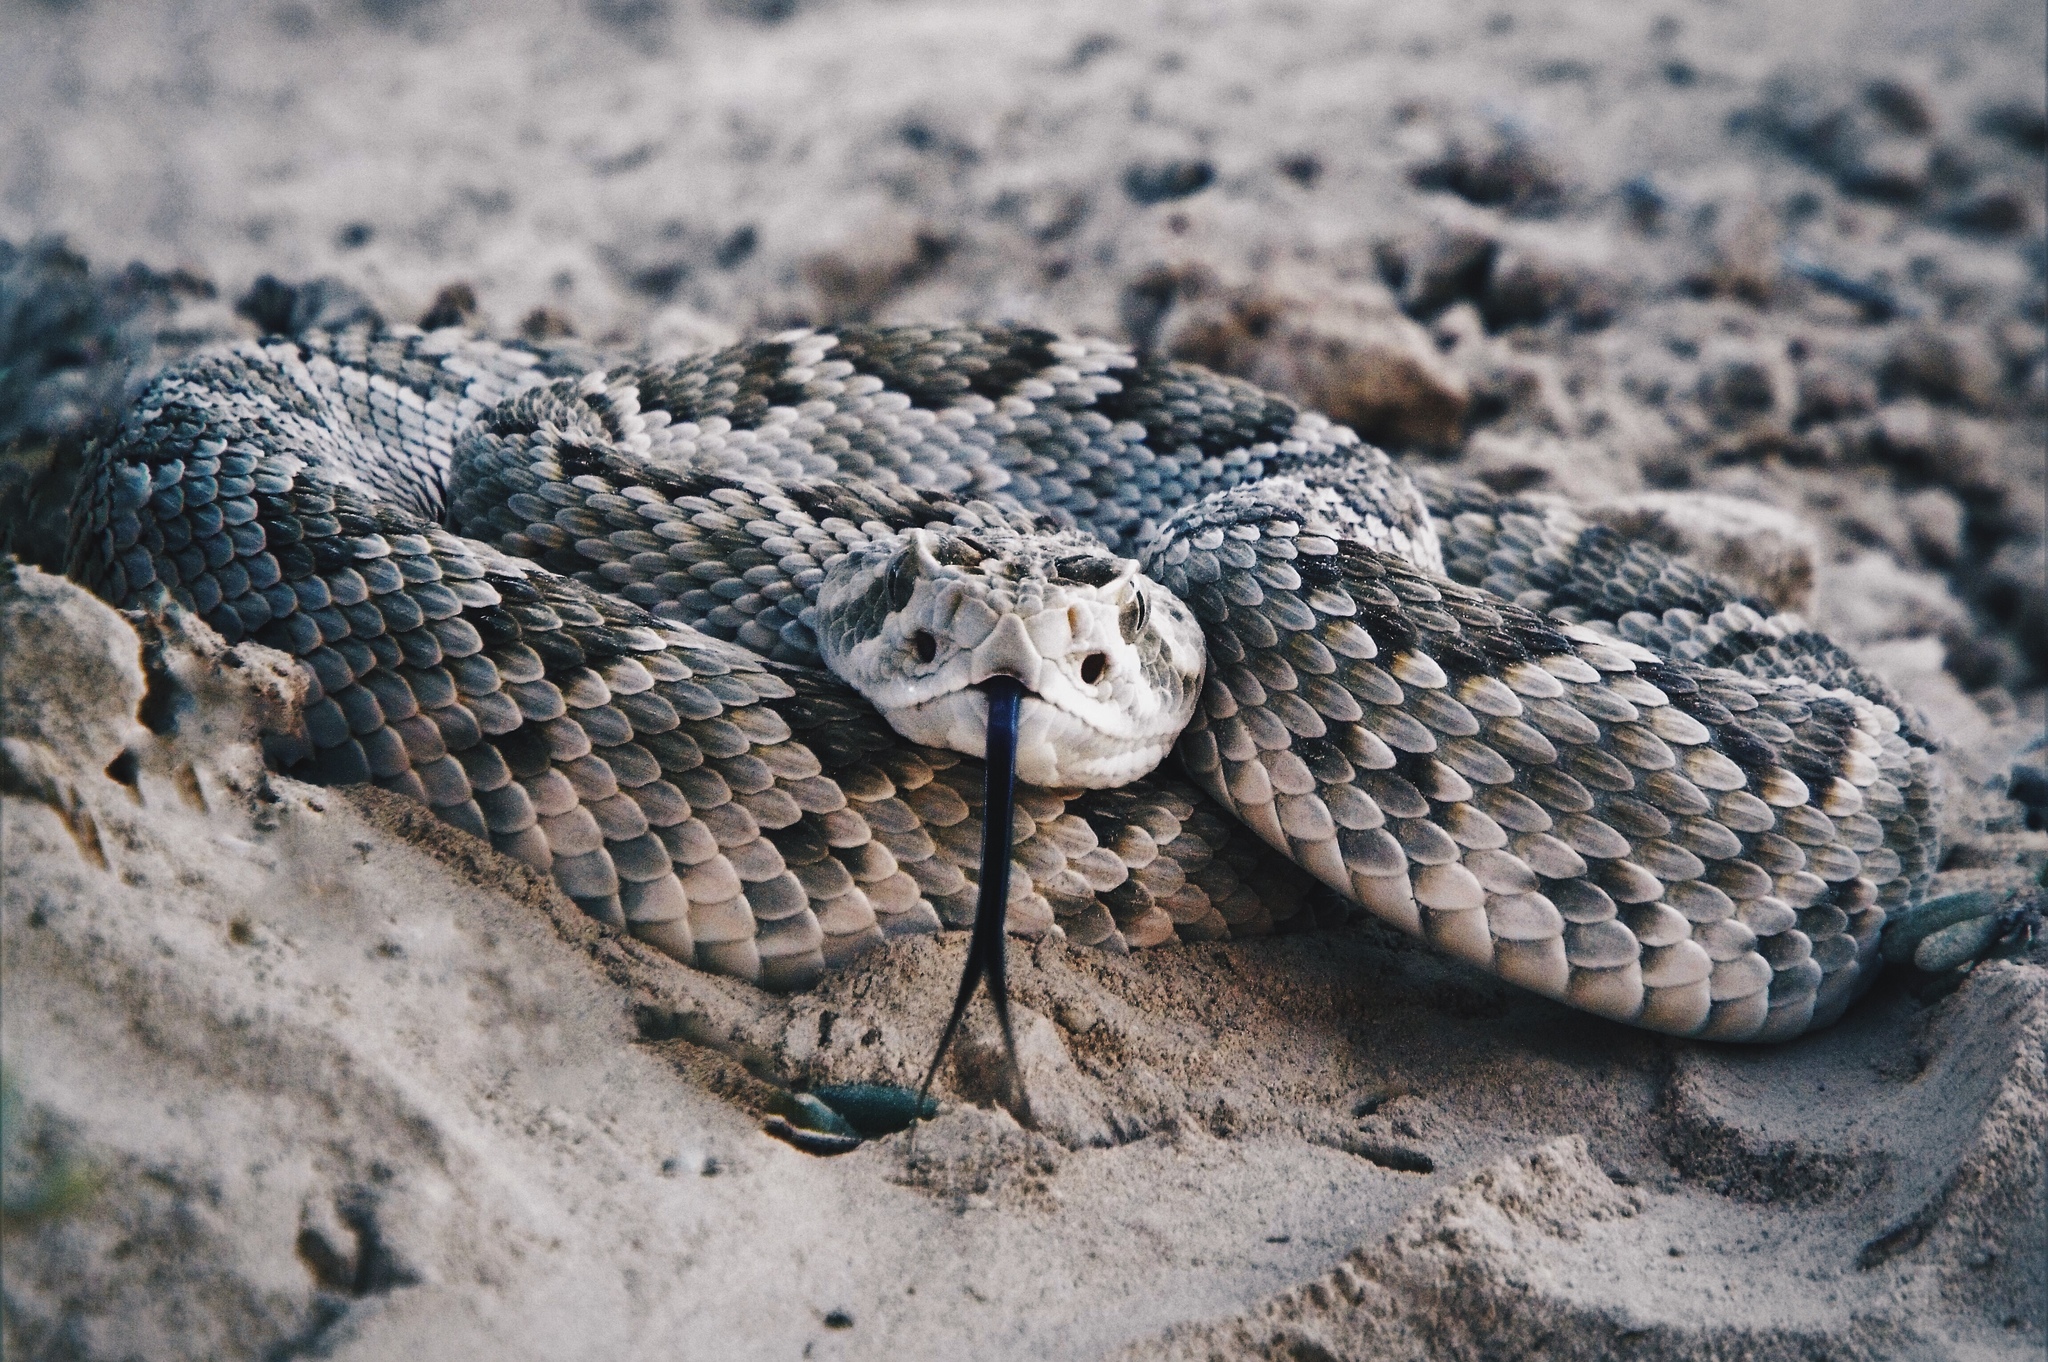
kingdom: Animalia
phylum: Chordata
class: Squamata
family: Viperidae
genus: Crotalus
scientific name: Crotalus scutulatus
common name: Scutulatus
